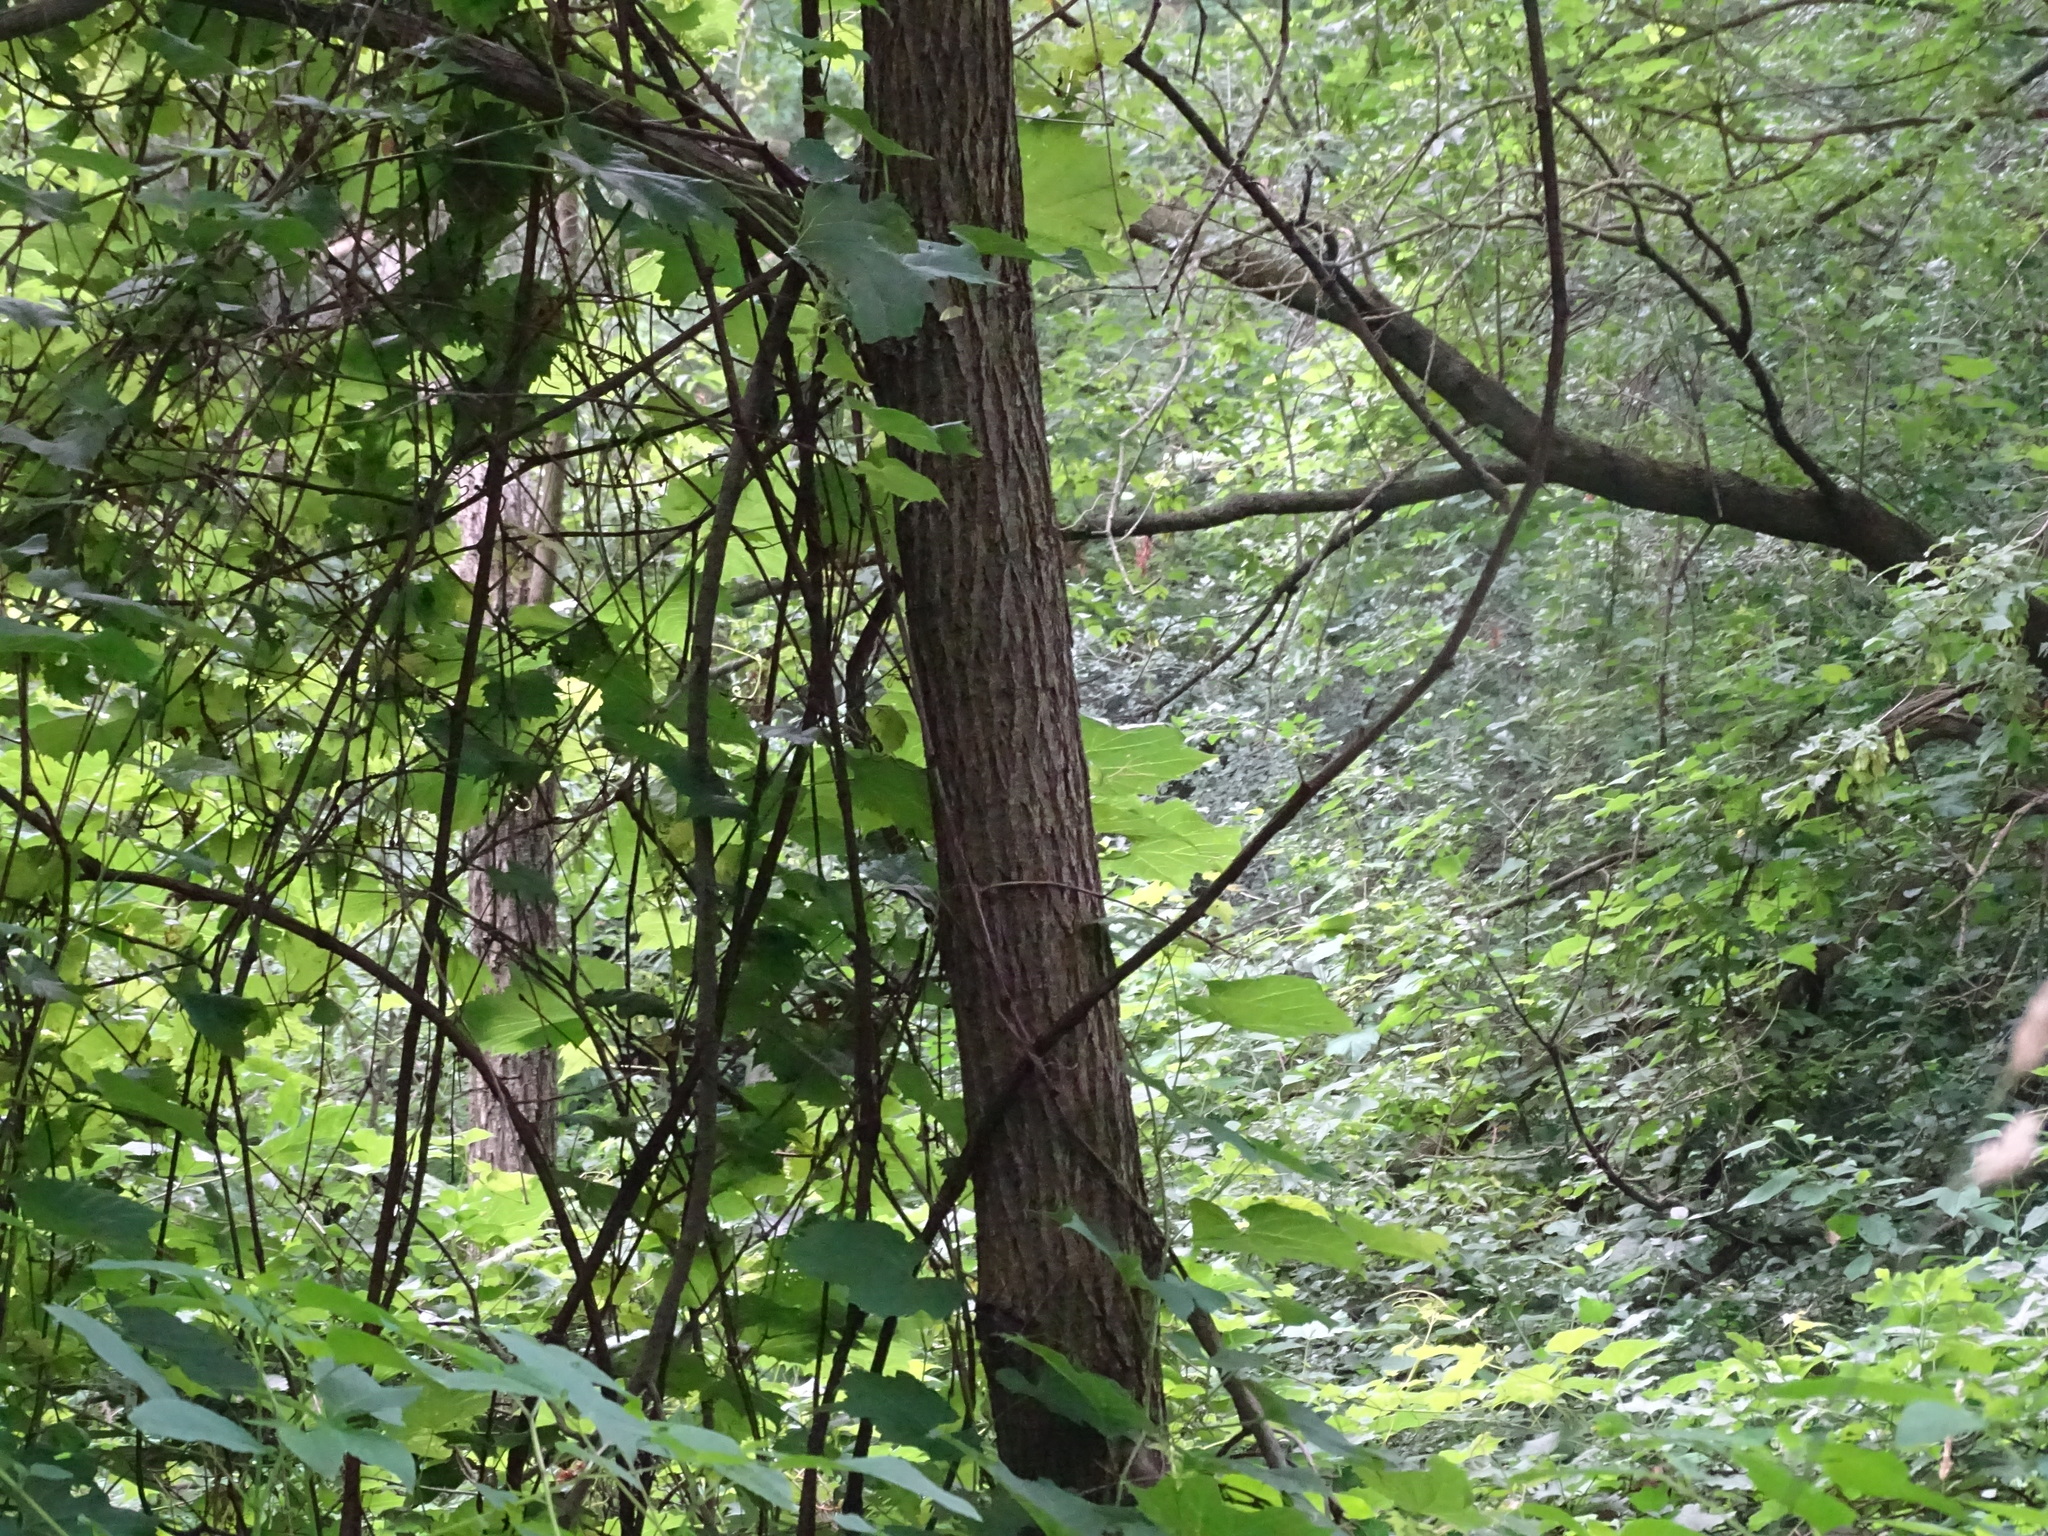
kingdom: Plantae
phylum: Tracheophyta
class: Magnoliopsida
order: Fagales
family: Juglandaceae
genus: Juglans
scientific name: Juglans nigra
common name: Black walnut
